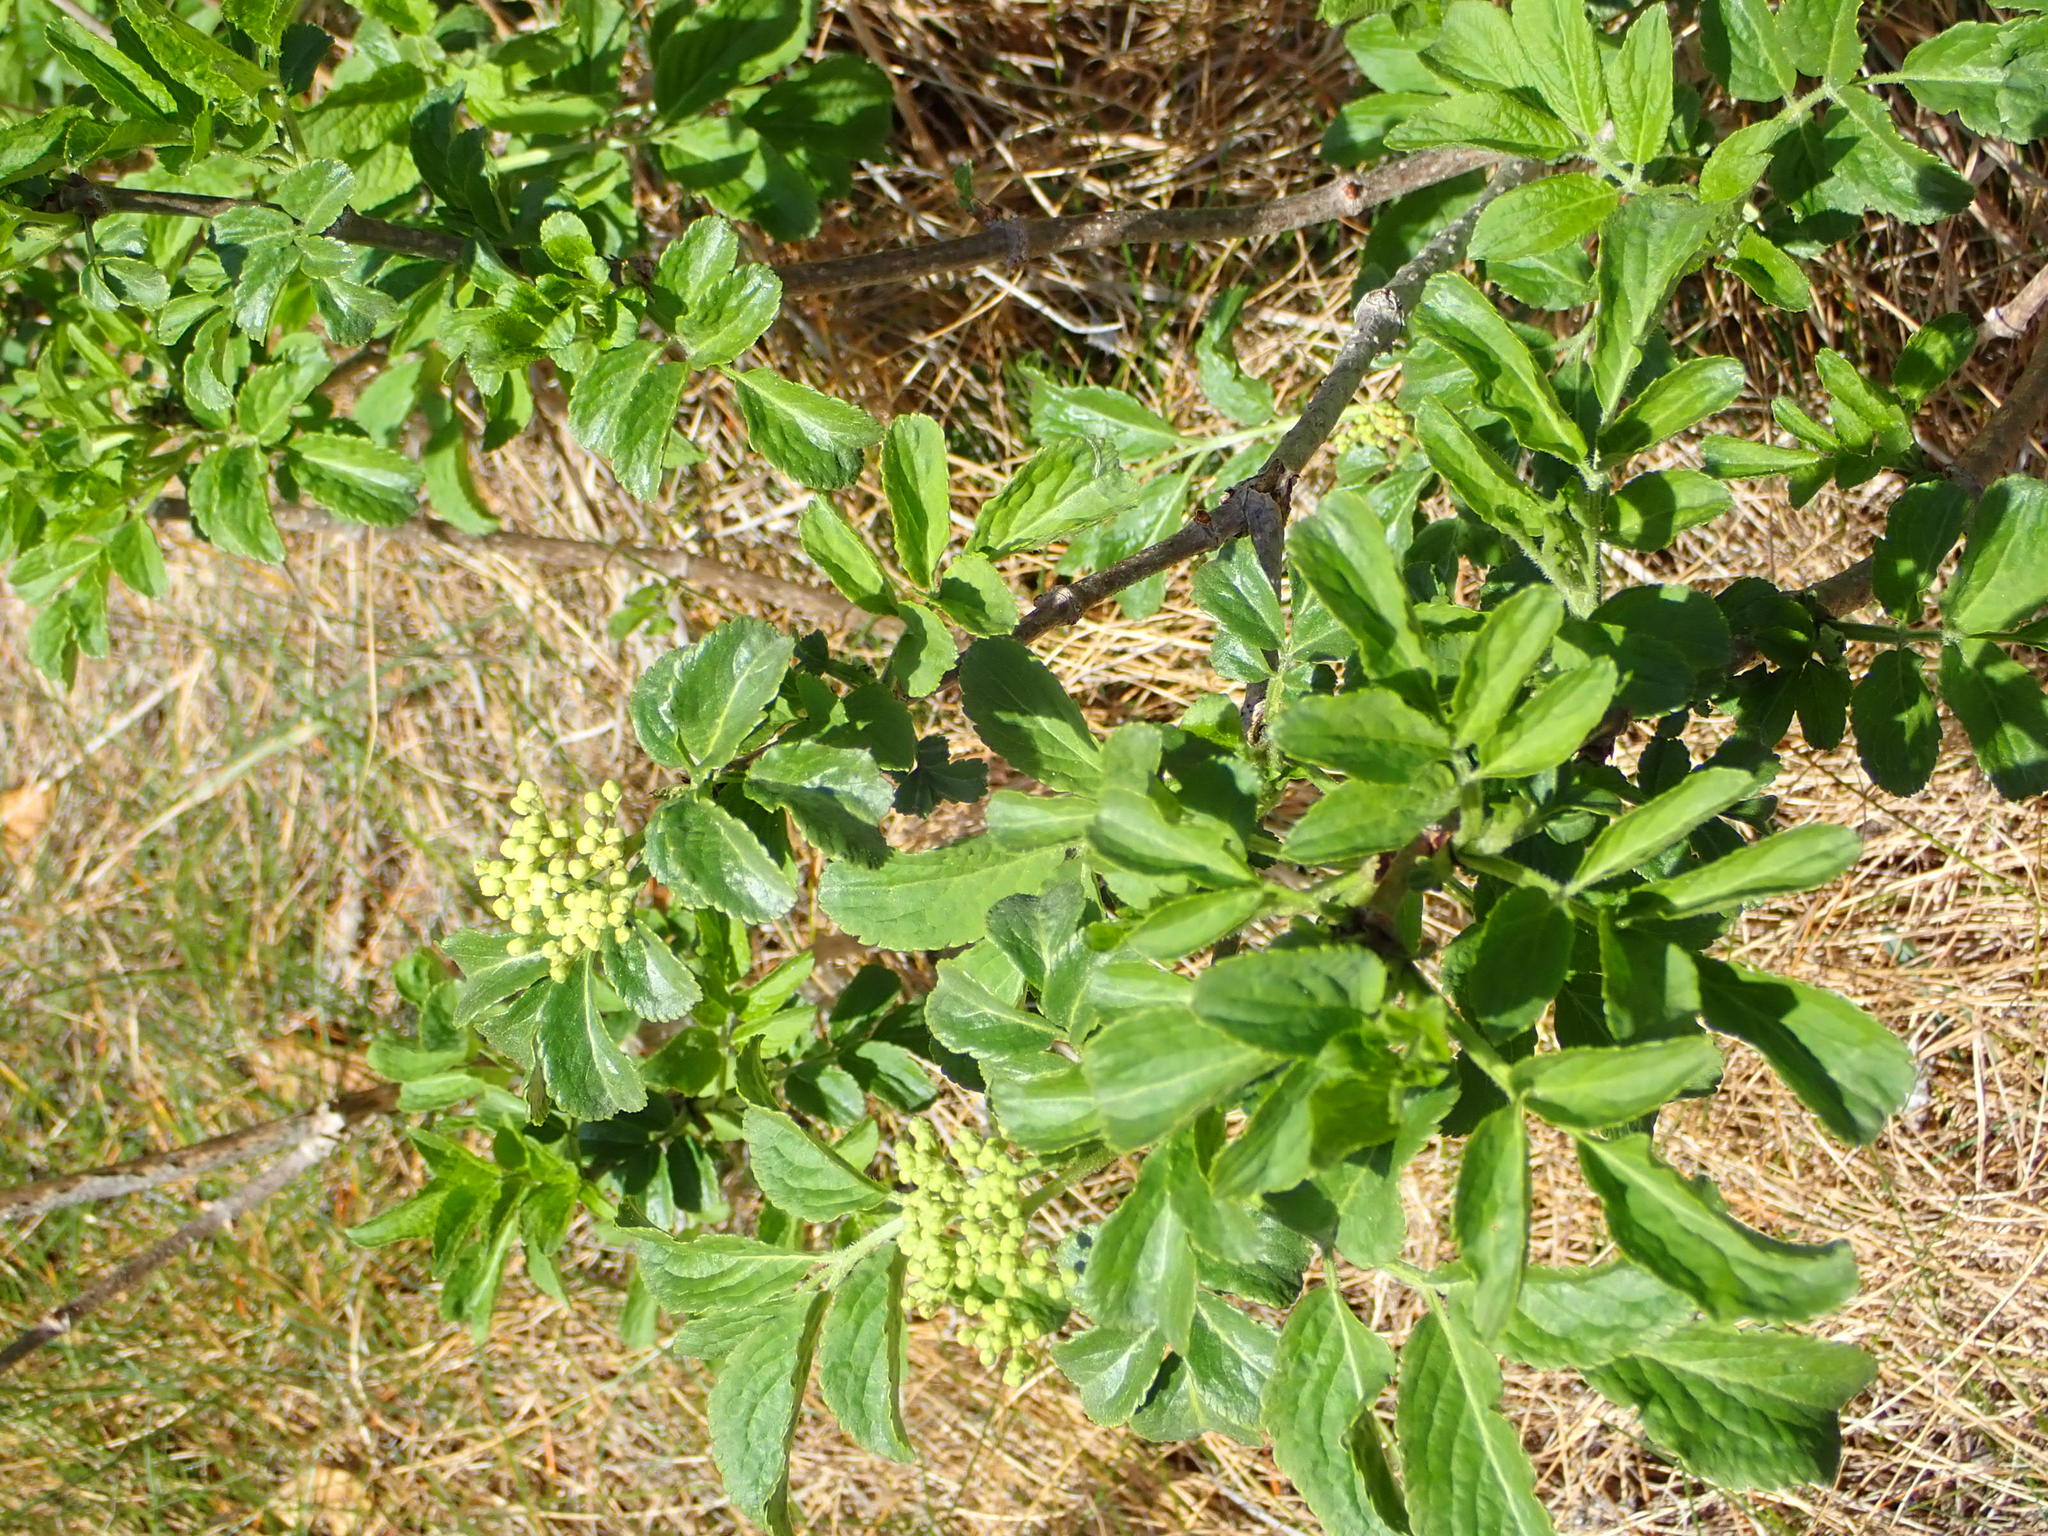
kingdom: Plantae
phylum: Tracheophyta
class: Magnoliopsida
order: Dipsacales
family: Viburnaceae
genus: Sambucus
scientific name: Sambucus nigra
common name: Elder
